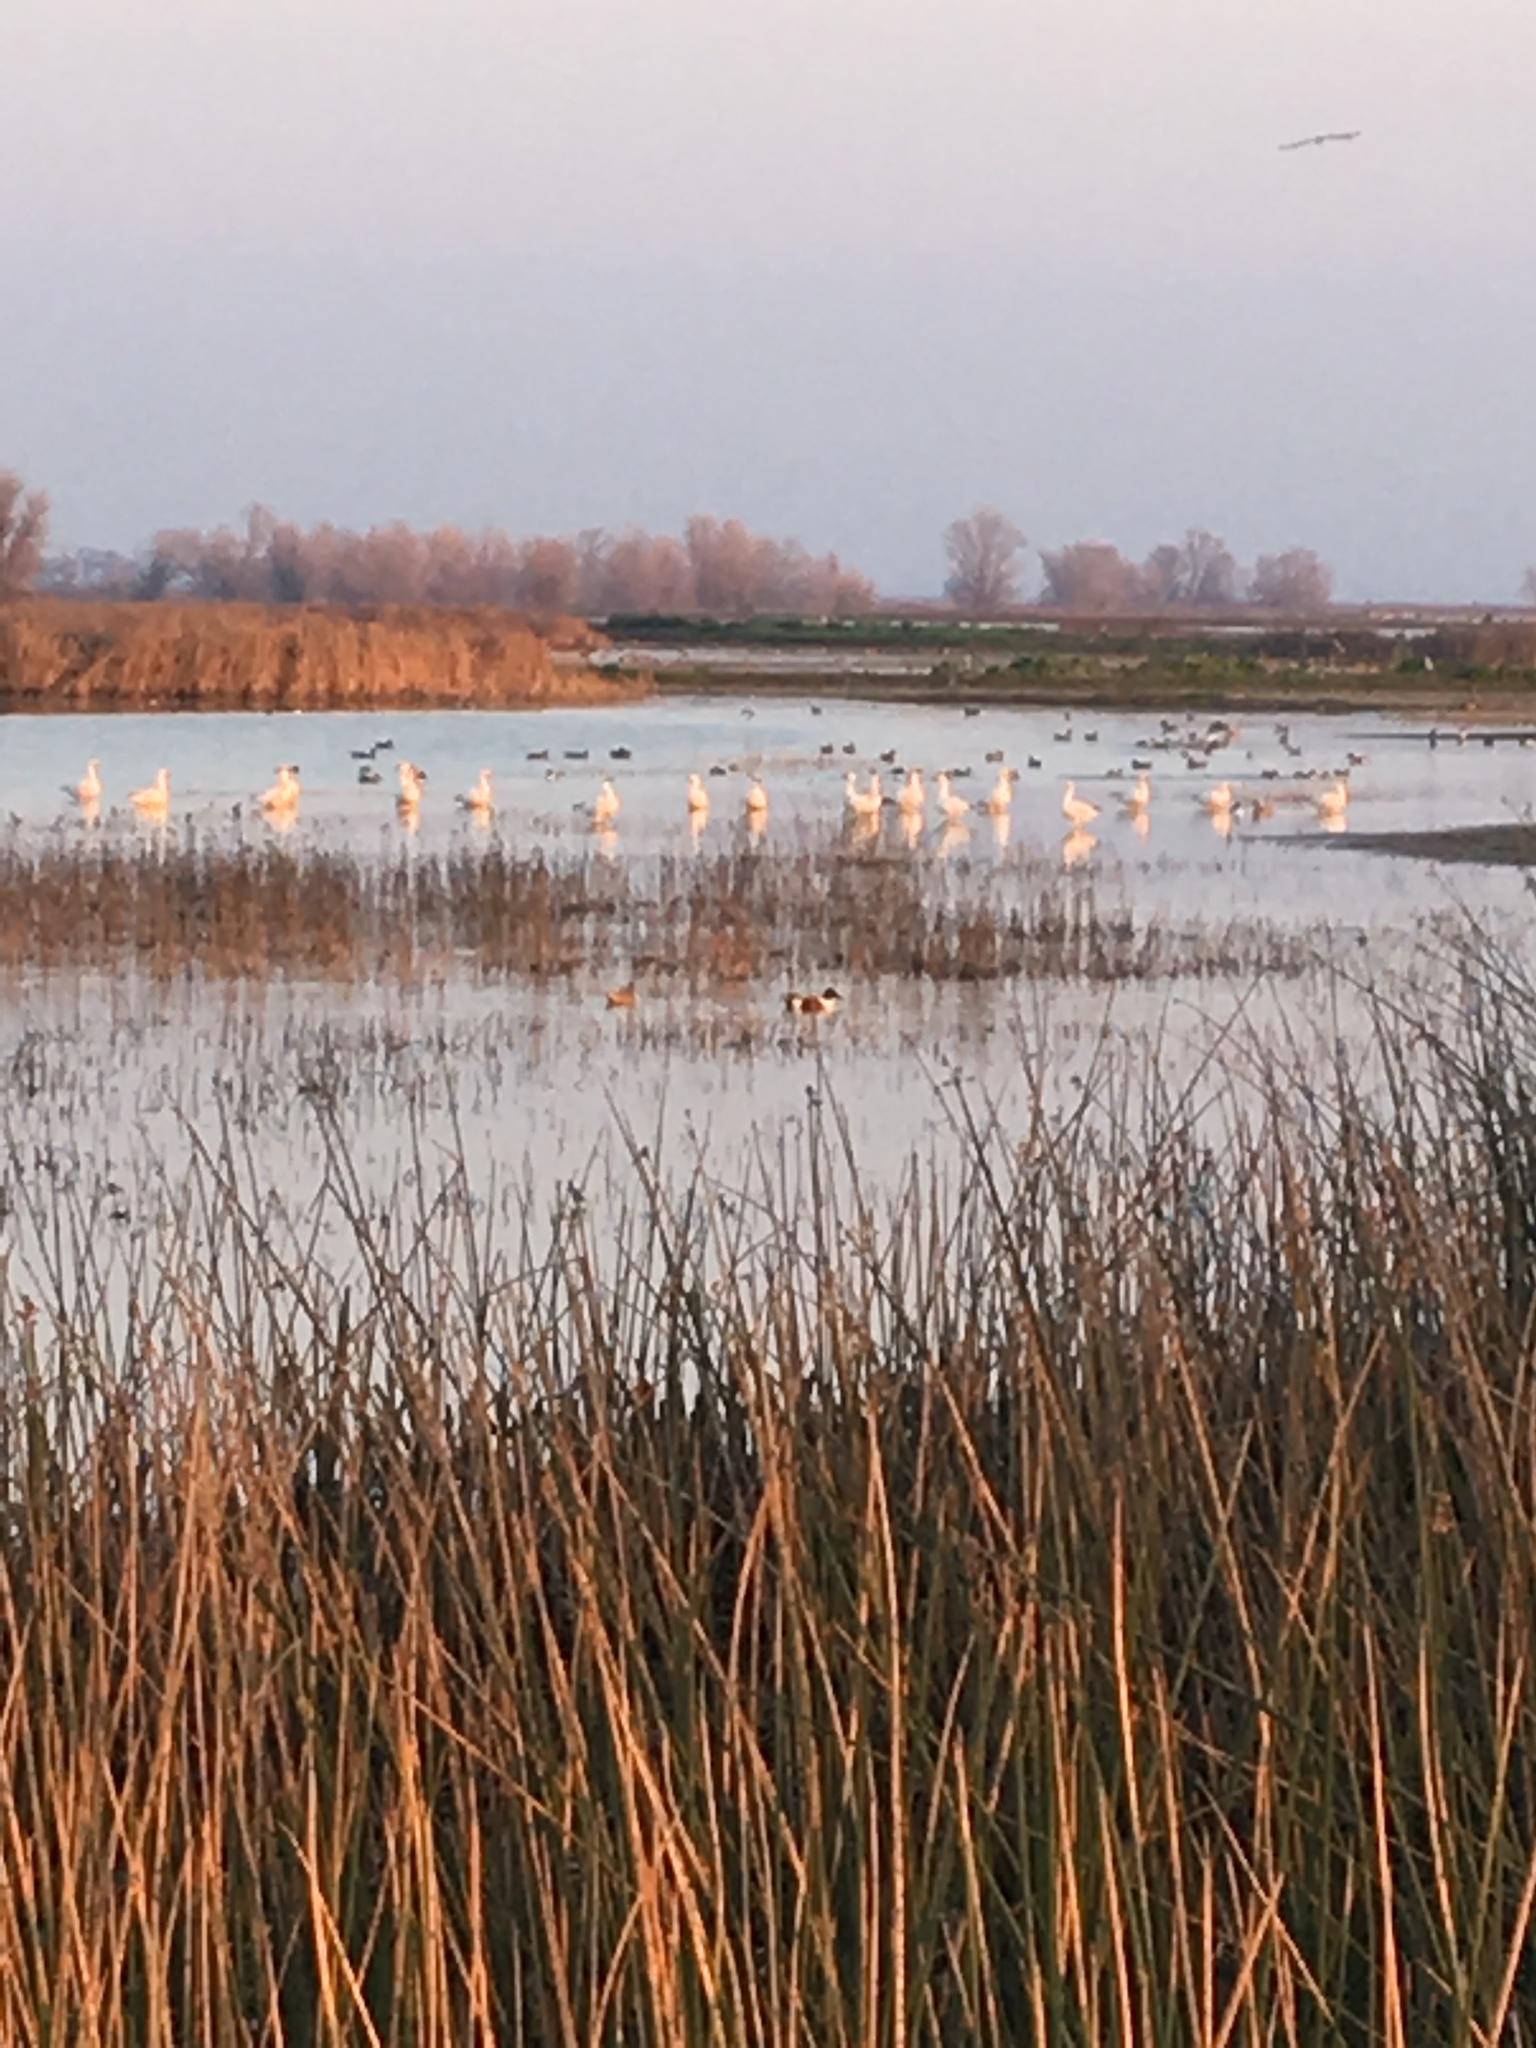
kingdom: Animalia
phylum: Chordata
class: Aves
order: Anseriformes
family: Anatidae
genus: Anser
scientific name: Anser caerulescens
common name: Snow goose
